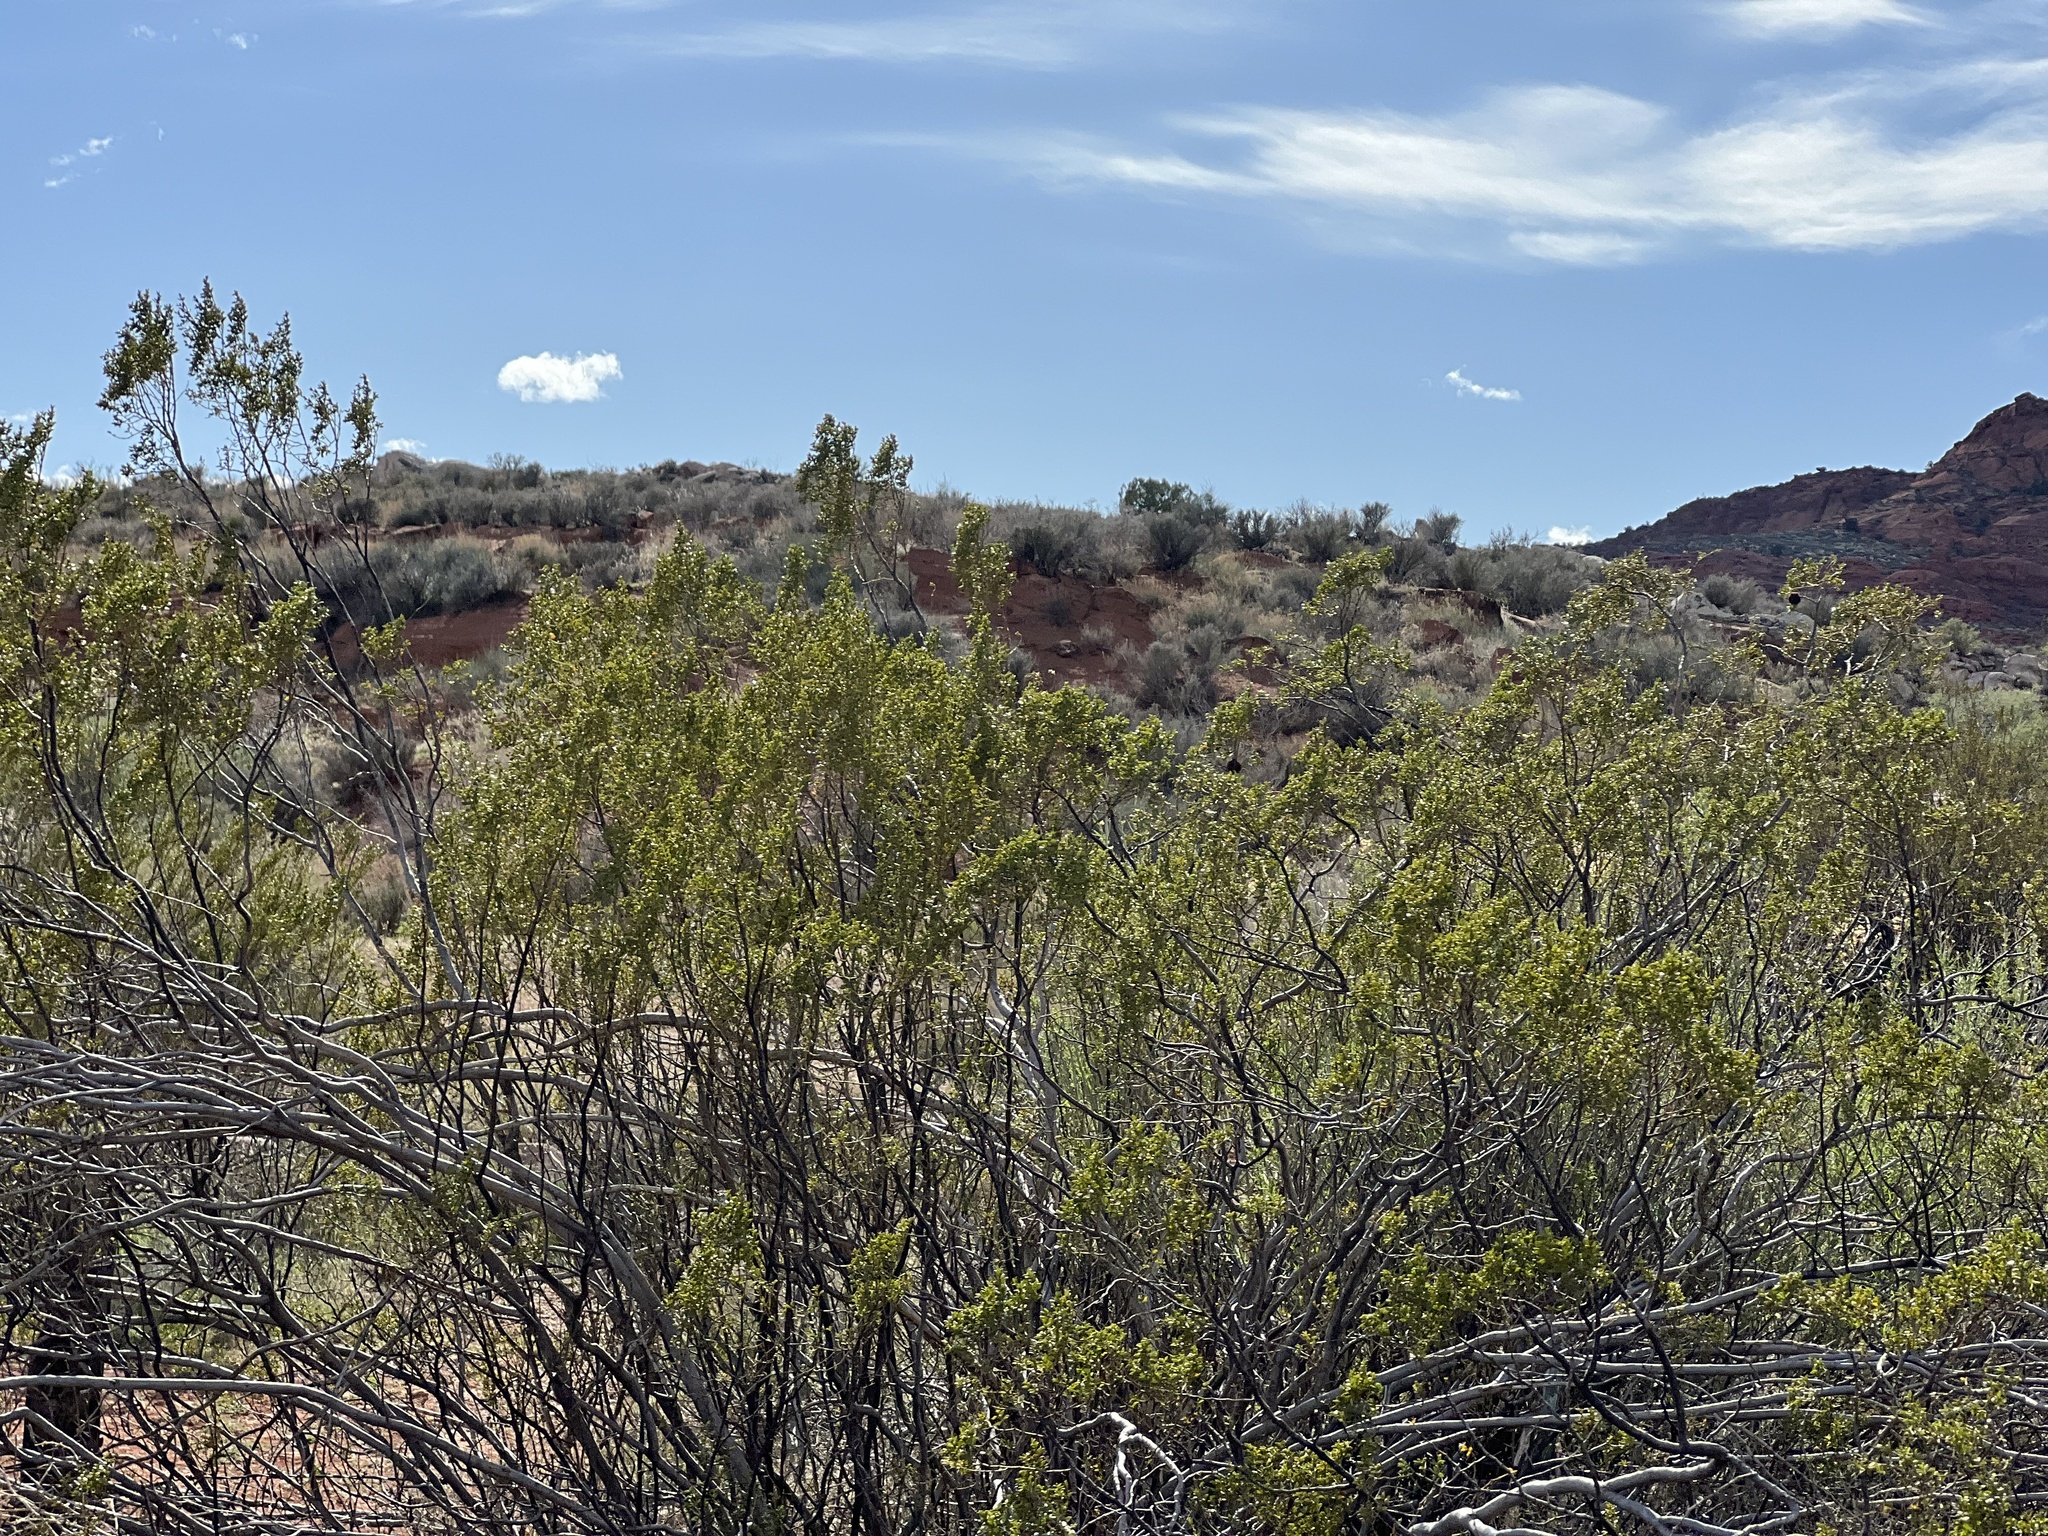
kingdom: Plantae
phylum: Tracheophyta
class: Magnoliopsida
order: Zygophyllales
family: Zygophyllaceae
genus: Larrea
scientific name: Larrea tridentata
